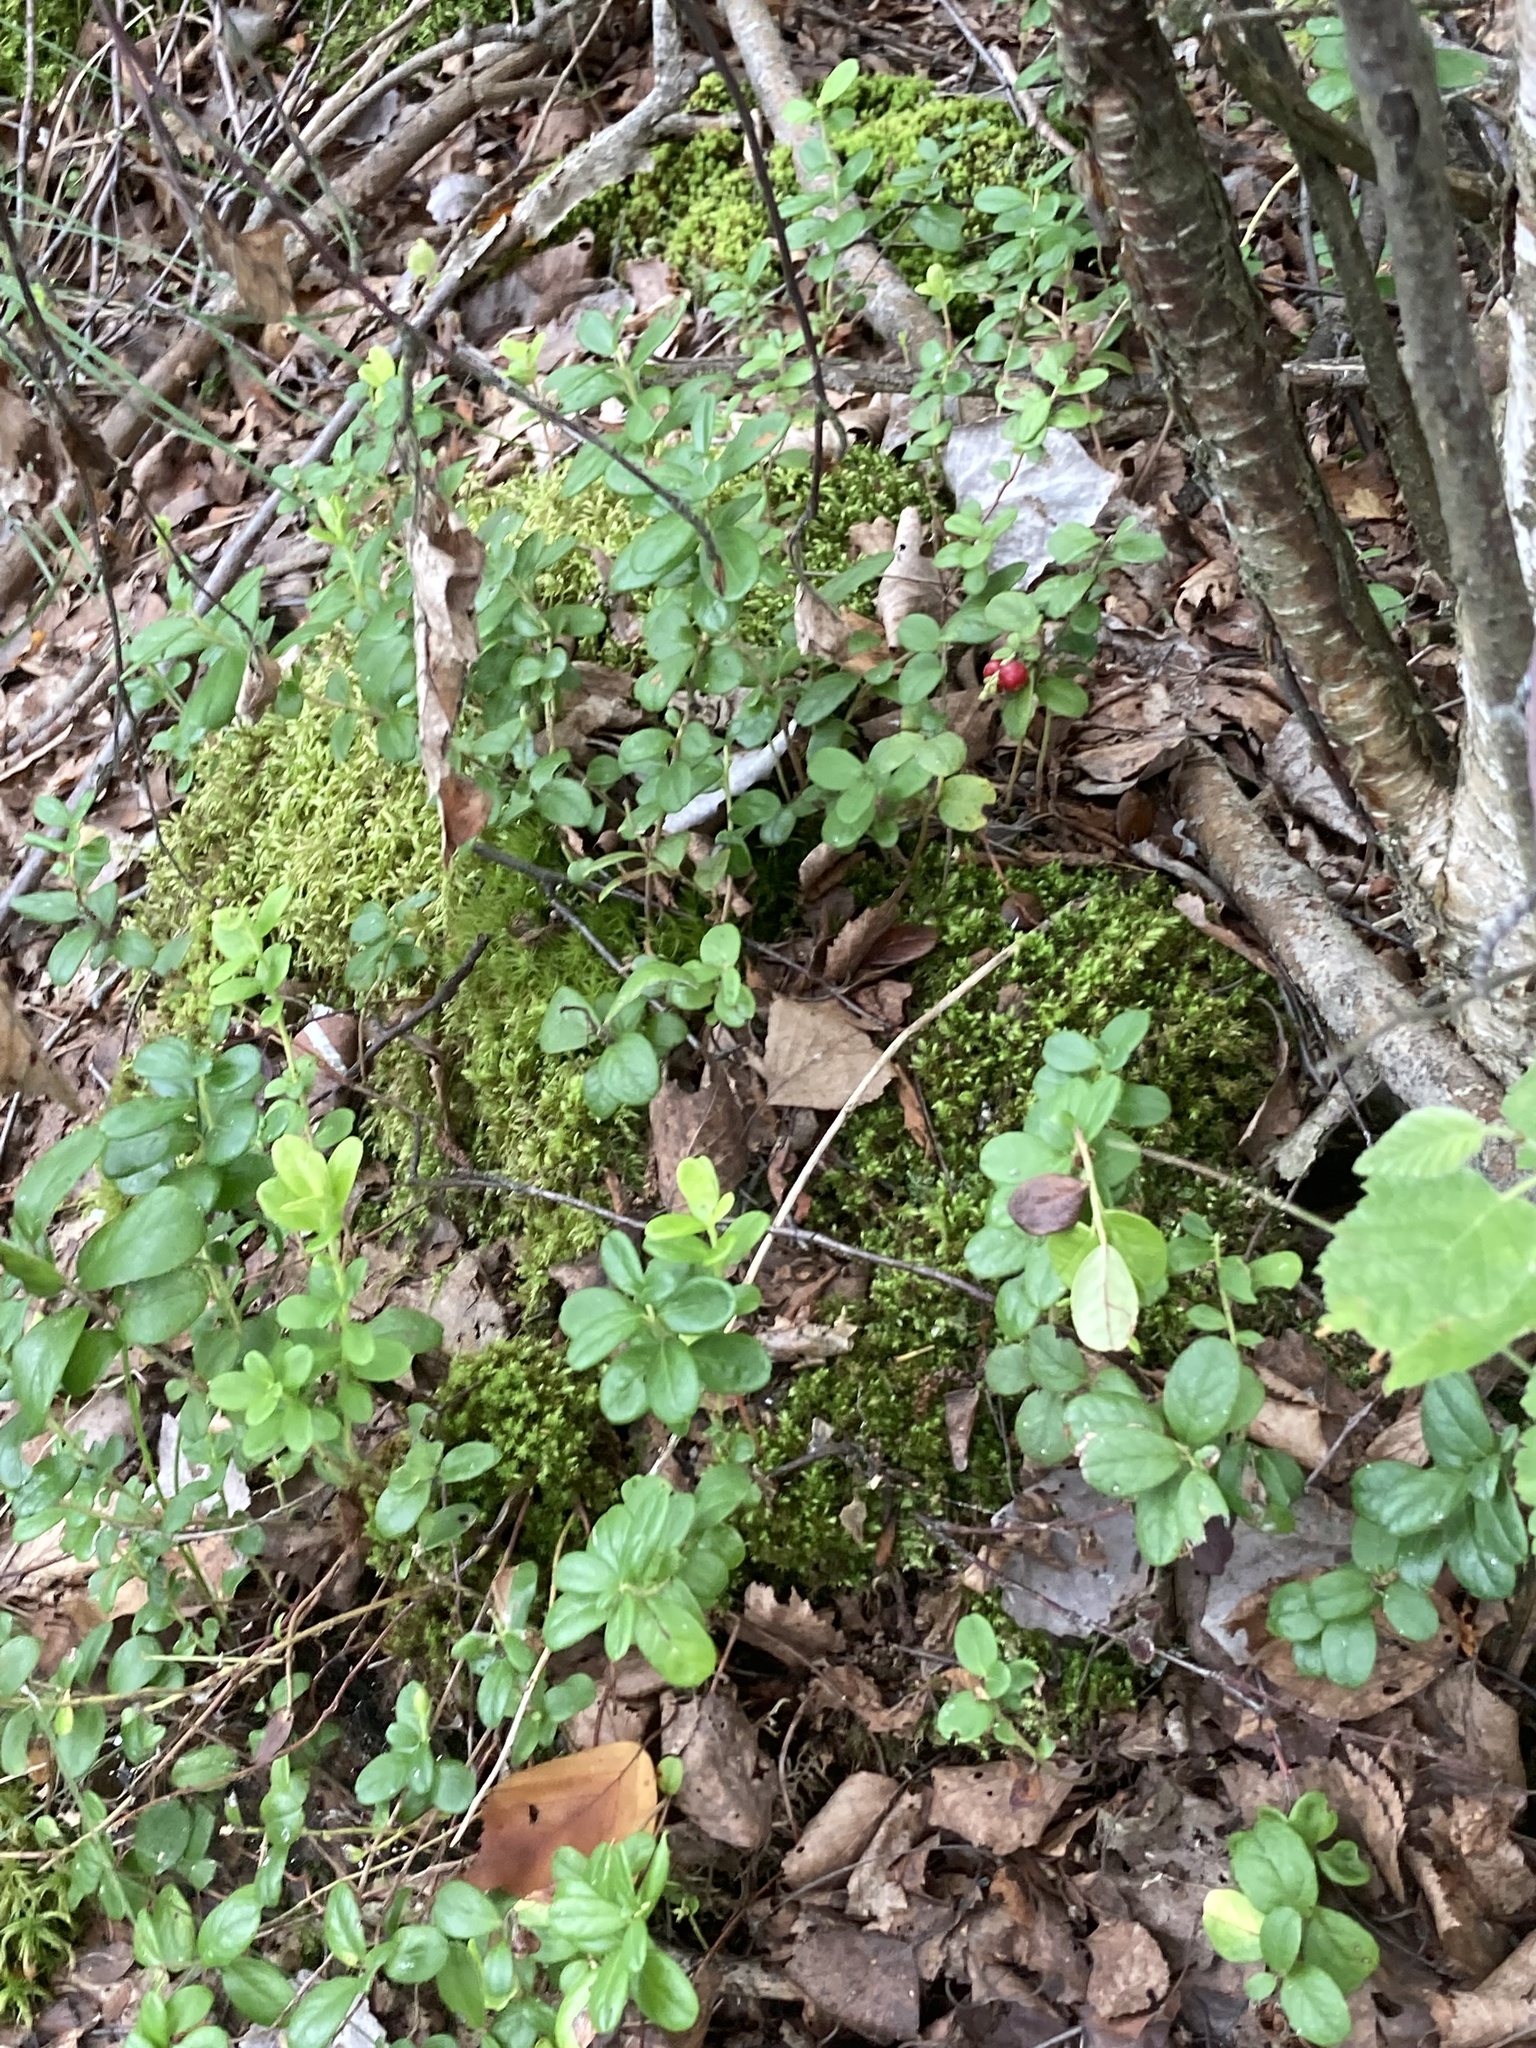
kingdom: Plantae
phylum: Tracheophyta
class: Magnoliopsida
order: Ericales
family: Ericaceae
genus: Vaccinium
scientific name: Vaccinium vitis-idaea
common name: Cowberry
